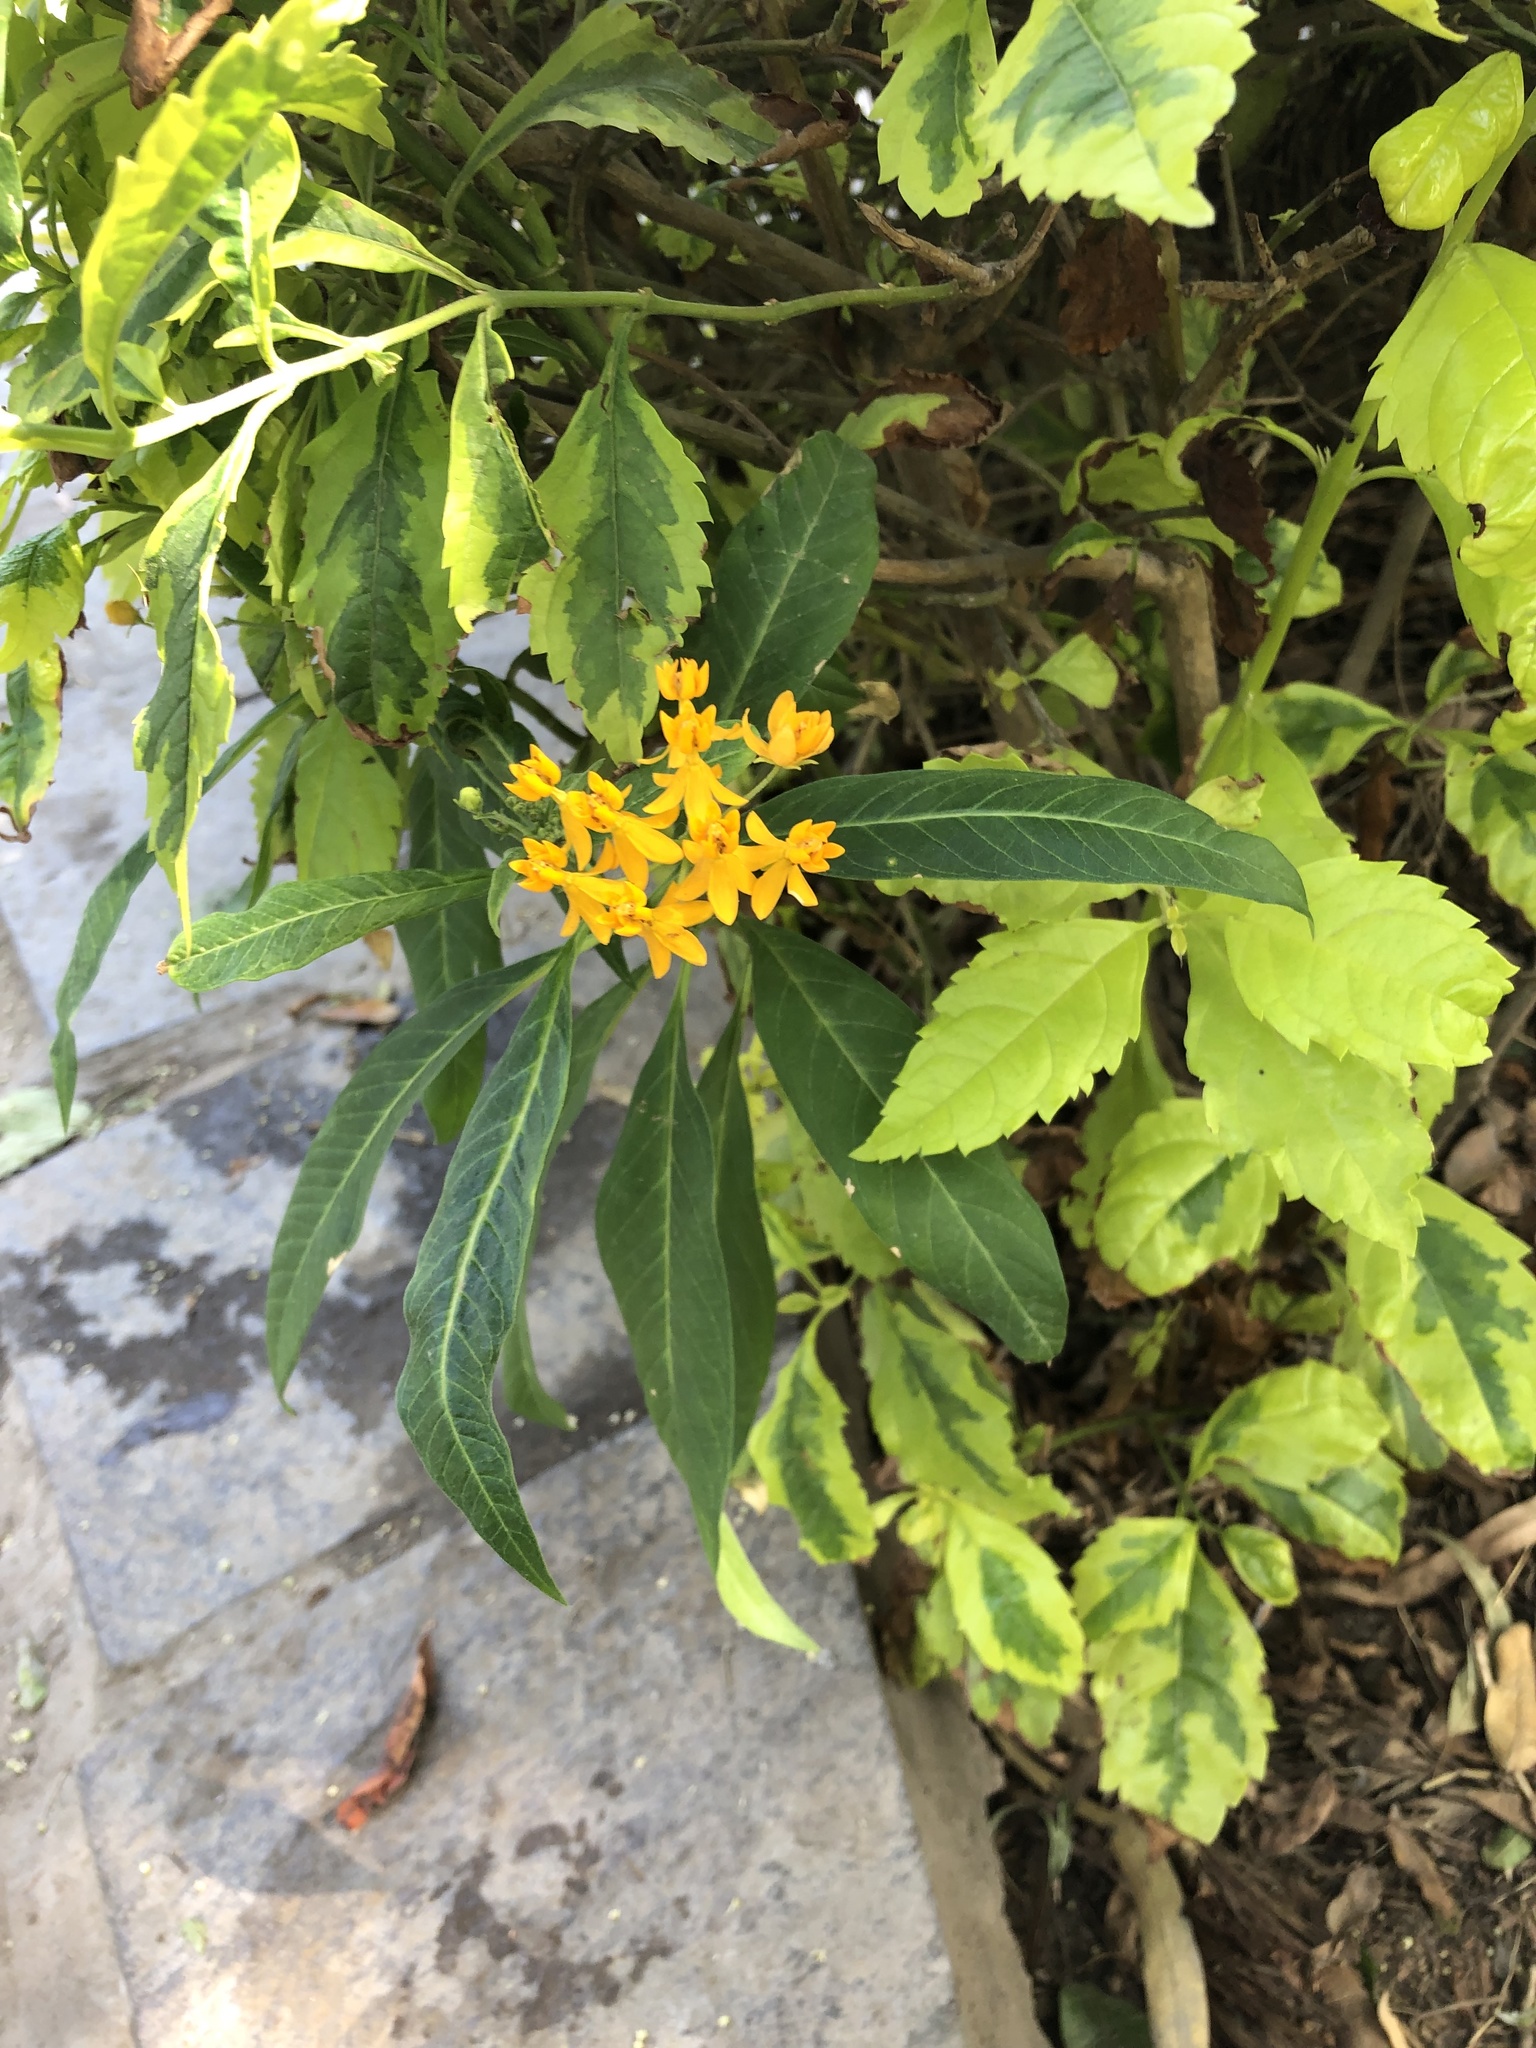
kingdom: Plantae
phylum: Tracheophyta
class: Magnoliopsida
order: Gentianales
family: Apocynaceae
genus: Asclepias
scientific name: Asclepias curassavica
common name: Bloodflower
